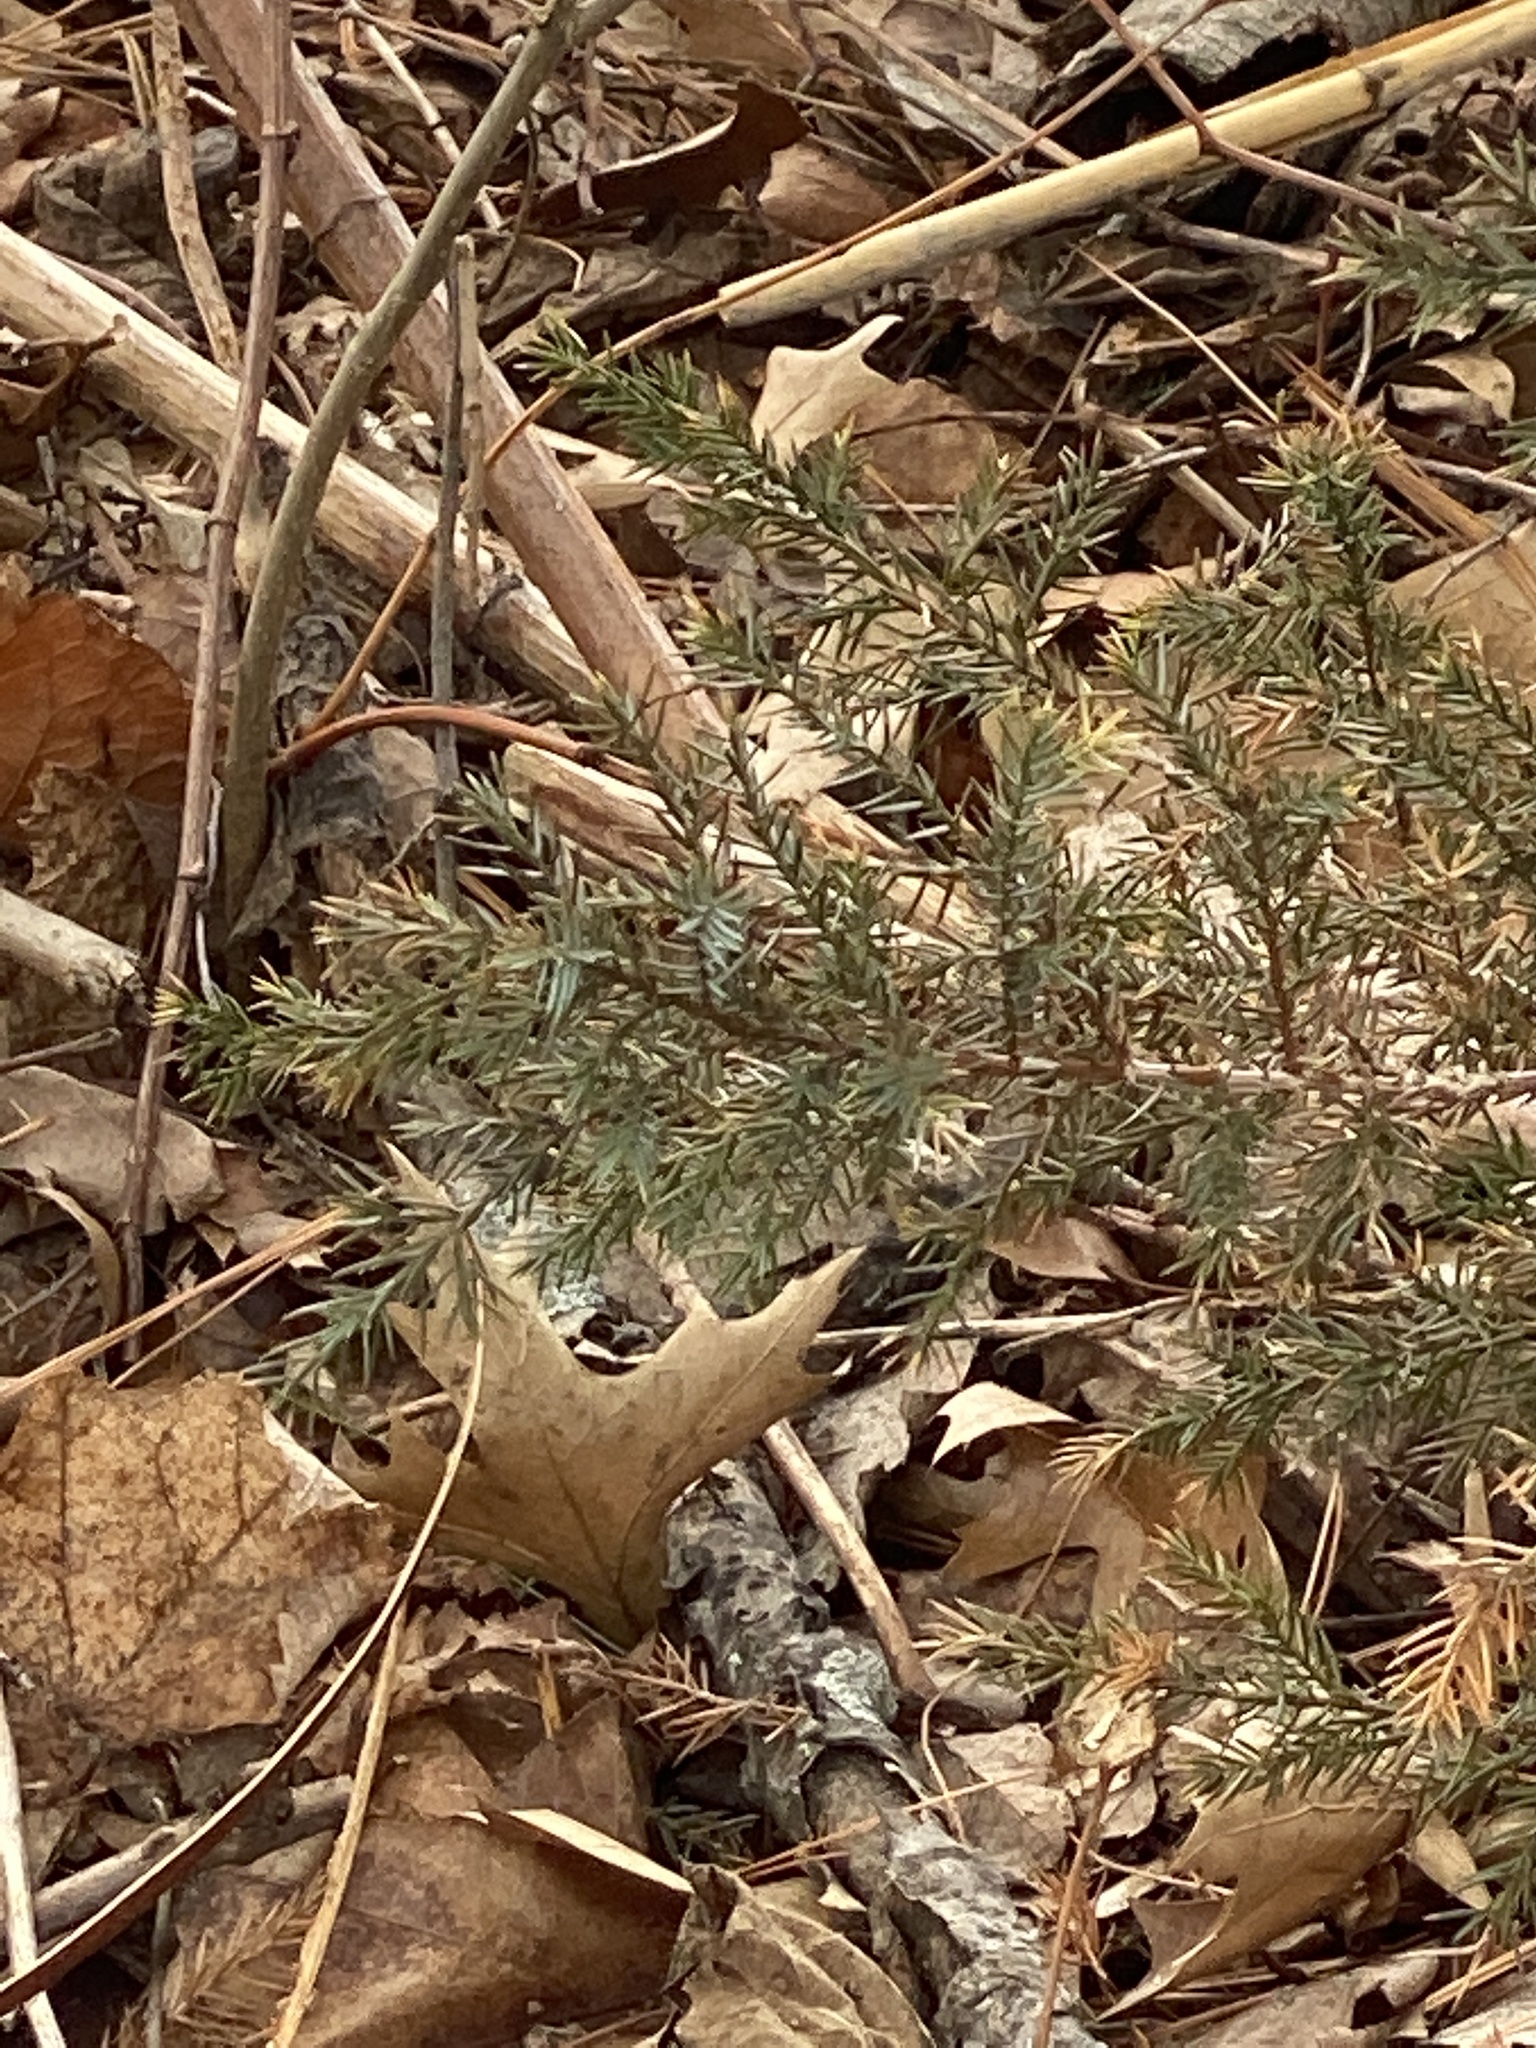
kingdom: Plantae
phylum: Tracheophyta
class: Pinopsida
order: Pinales
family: Cupressaceae
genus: Juniperus
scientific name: Juniperus virginiana
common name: Red juniper
